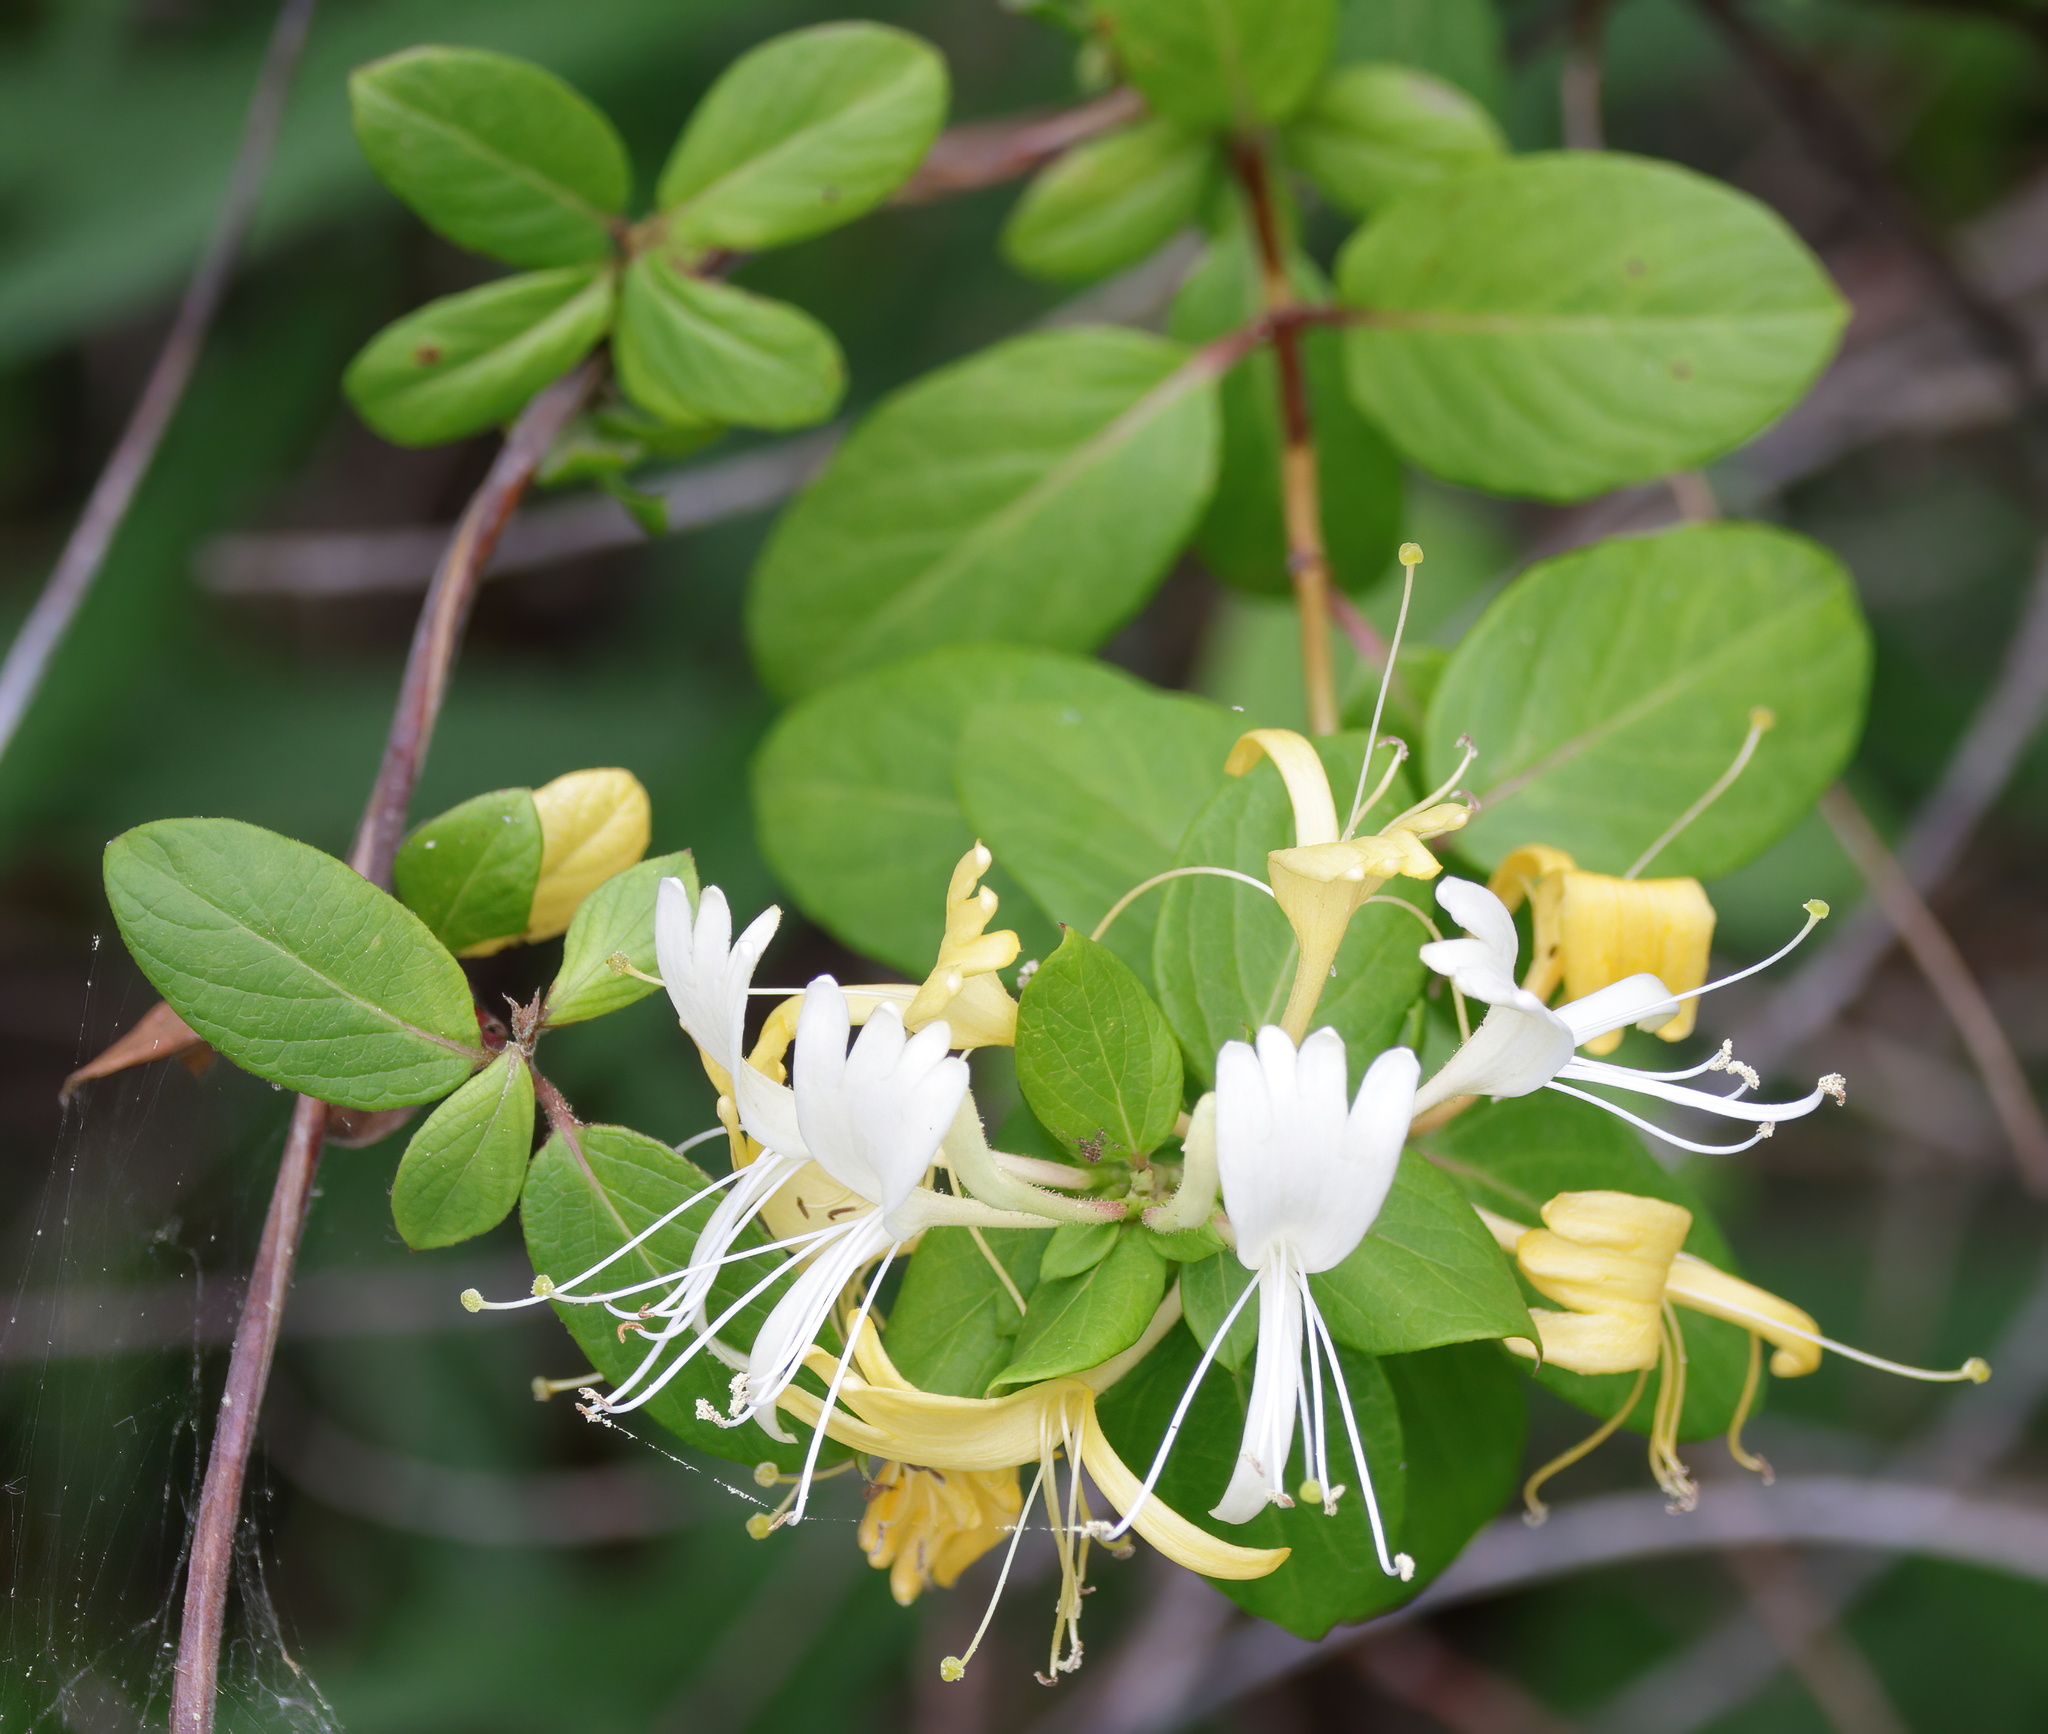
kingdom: Plantae
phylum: Tracheophyta
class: Magnoliopsida
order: Dipsacales
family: Caprifoliaceae
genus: Lonicera
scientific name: Lonicera japonica
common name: Japanese honeysuckle
